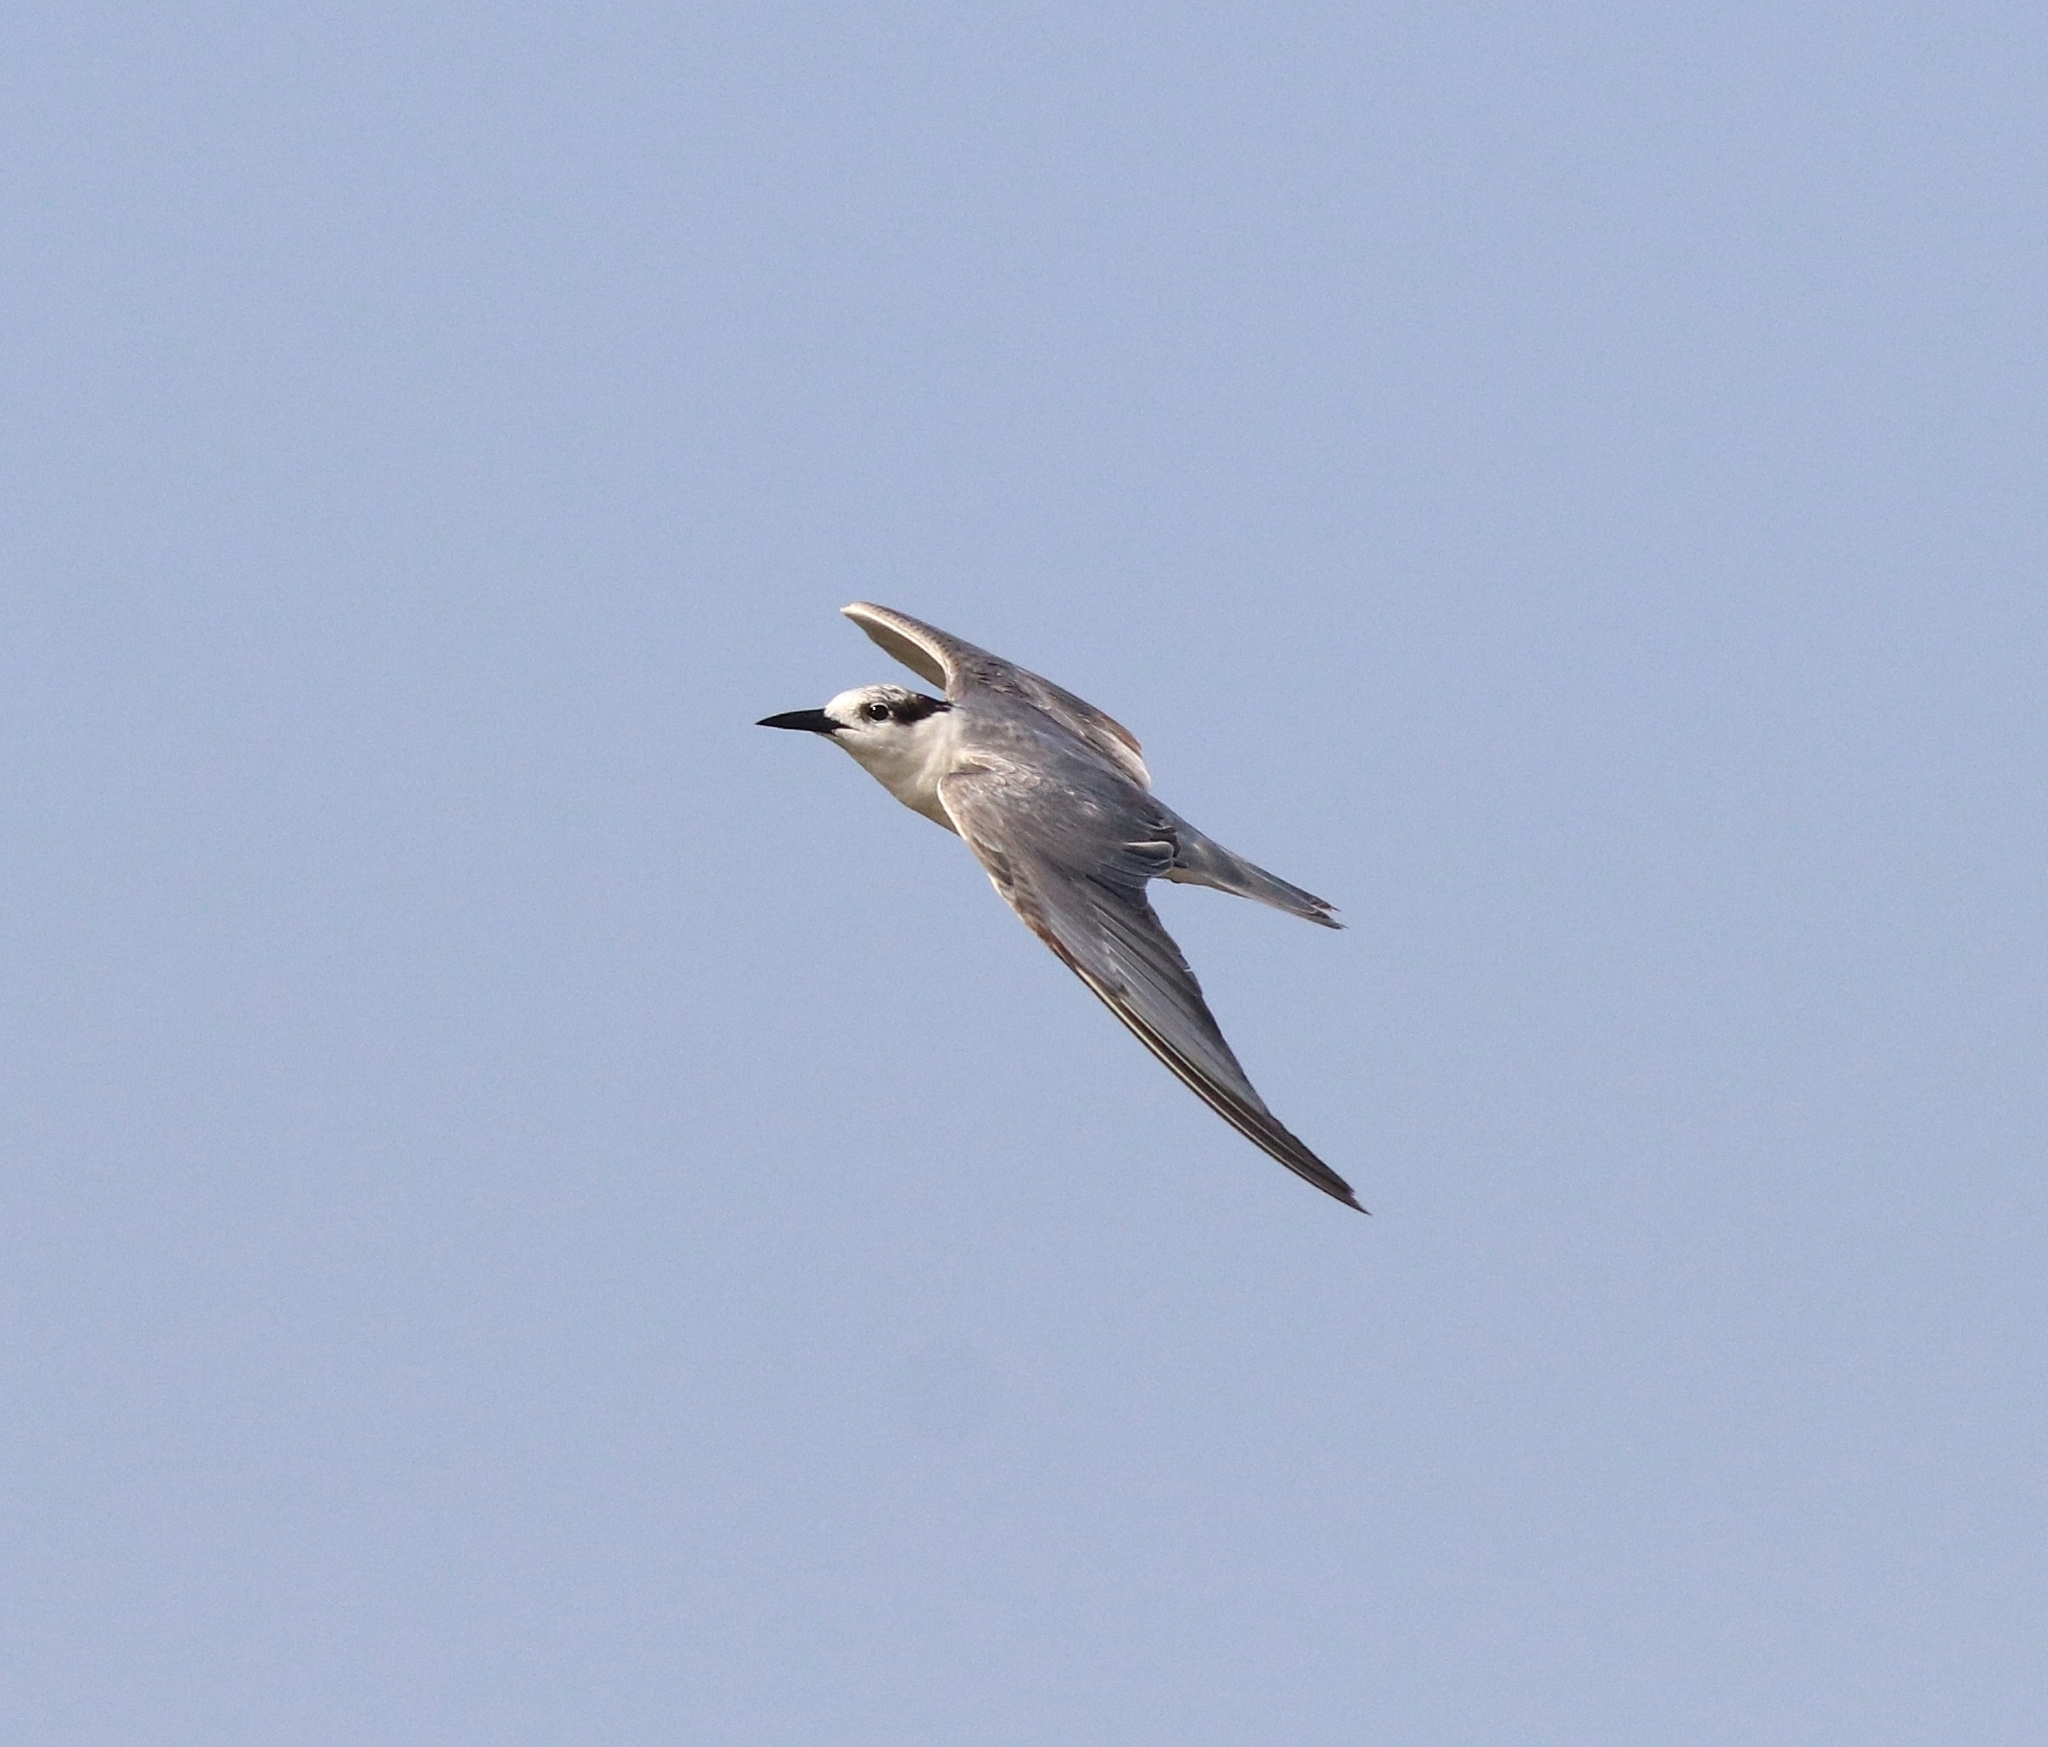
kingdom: Animalia
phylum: Chordata
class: Aves
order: Charadriiformes
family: Laridae
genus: Chlidonias
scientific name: Chlidonias hybrida
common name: Whiskered tern
